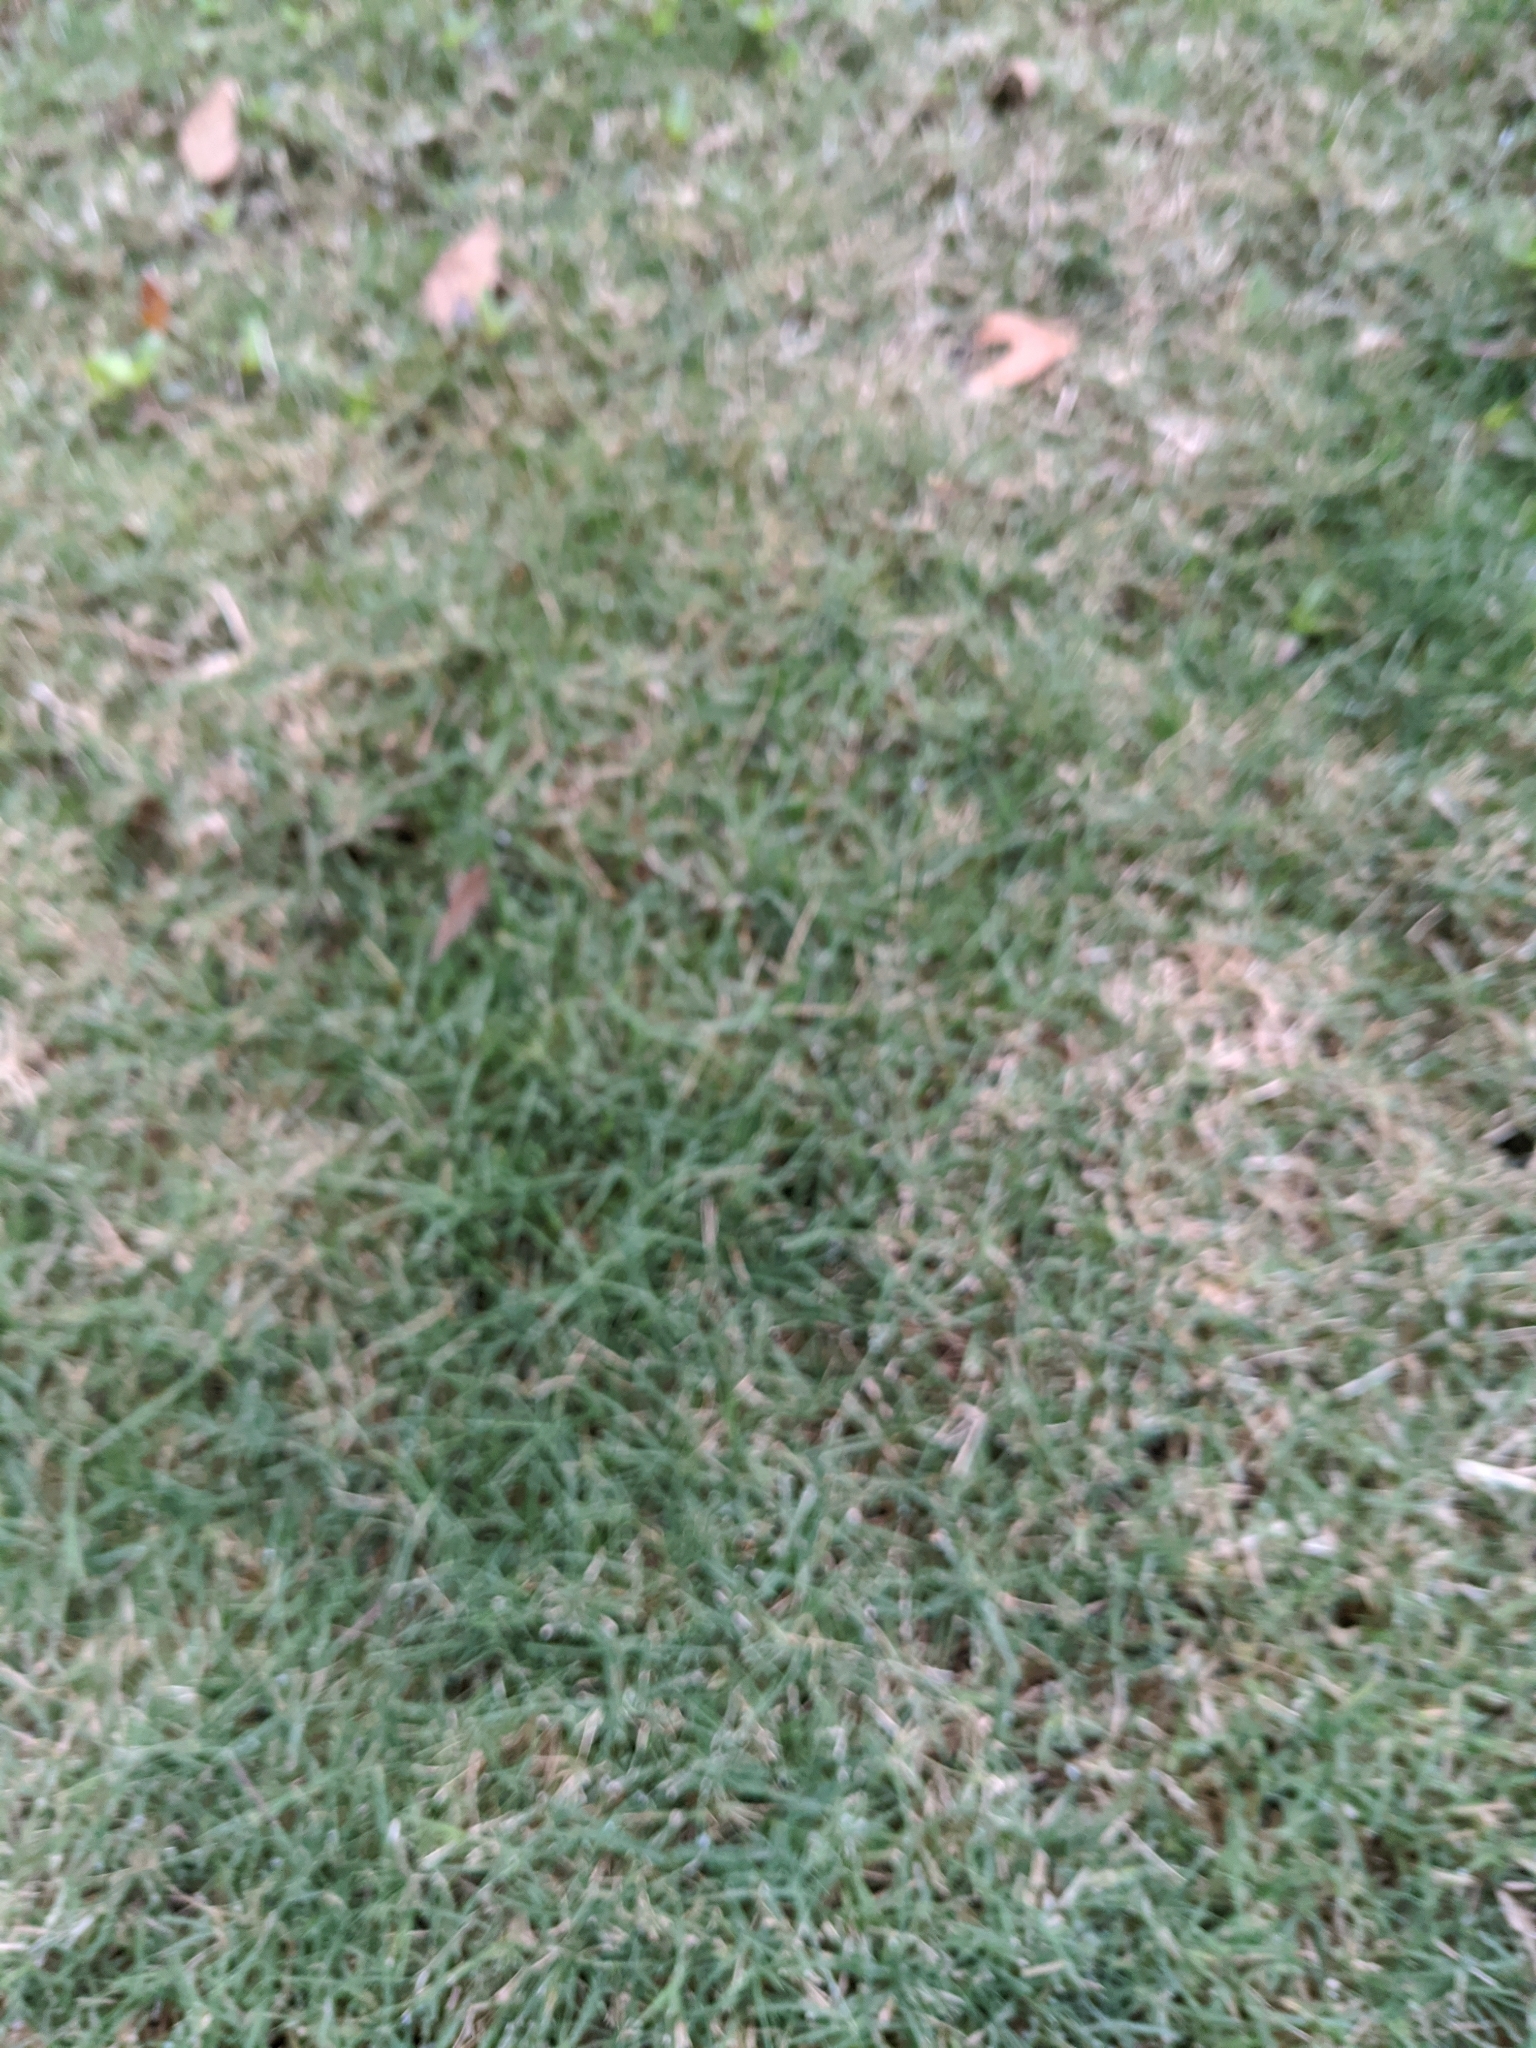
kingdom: Plantae
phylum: Tracheophyta
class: Liliopsida
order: Poales
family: Poaceae
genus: Cynodon
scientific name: Cynodon dactylon
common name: Bermuda grass
